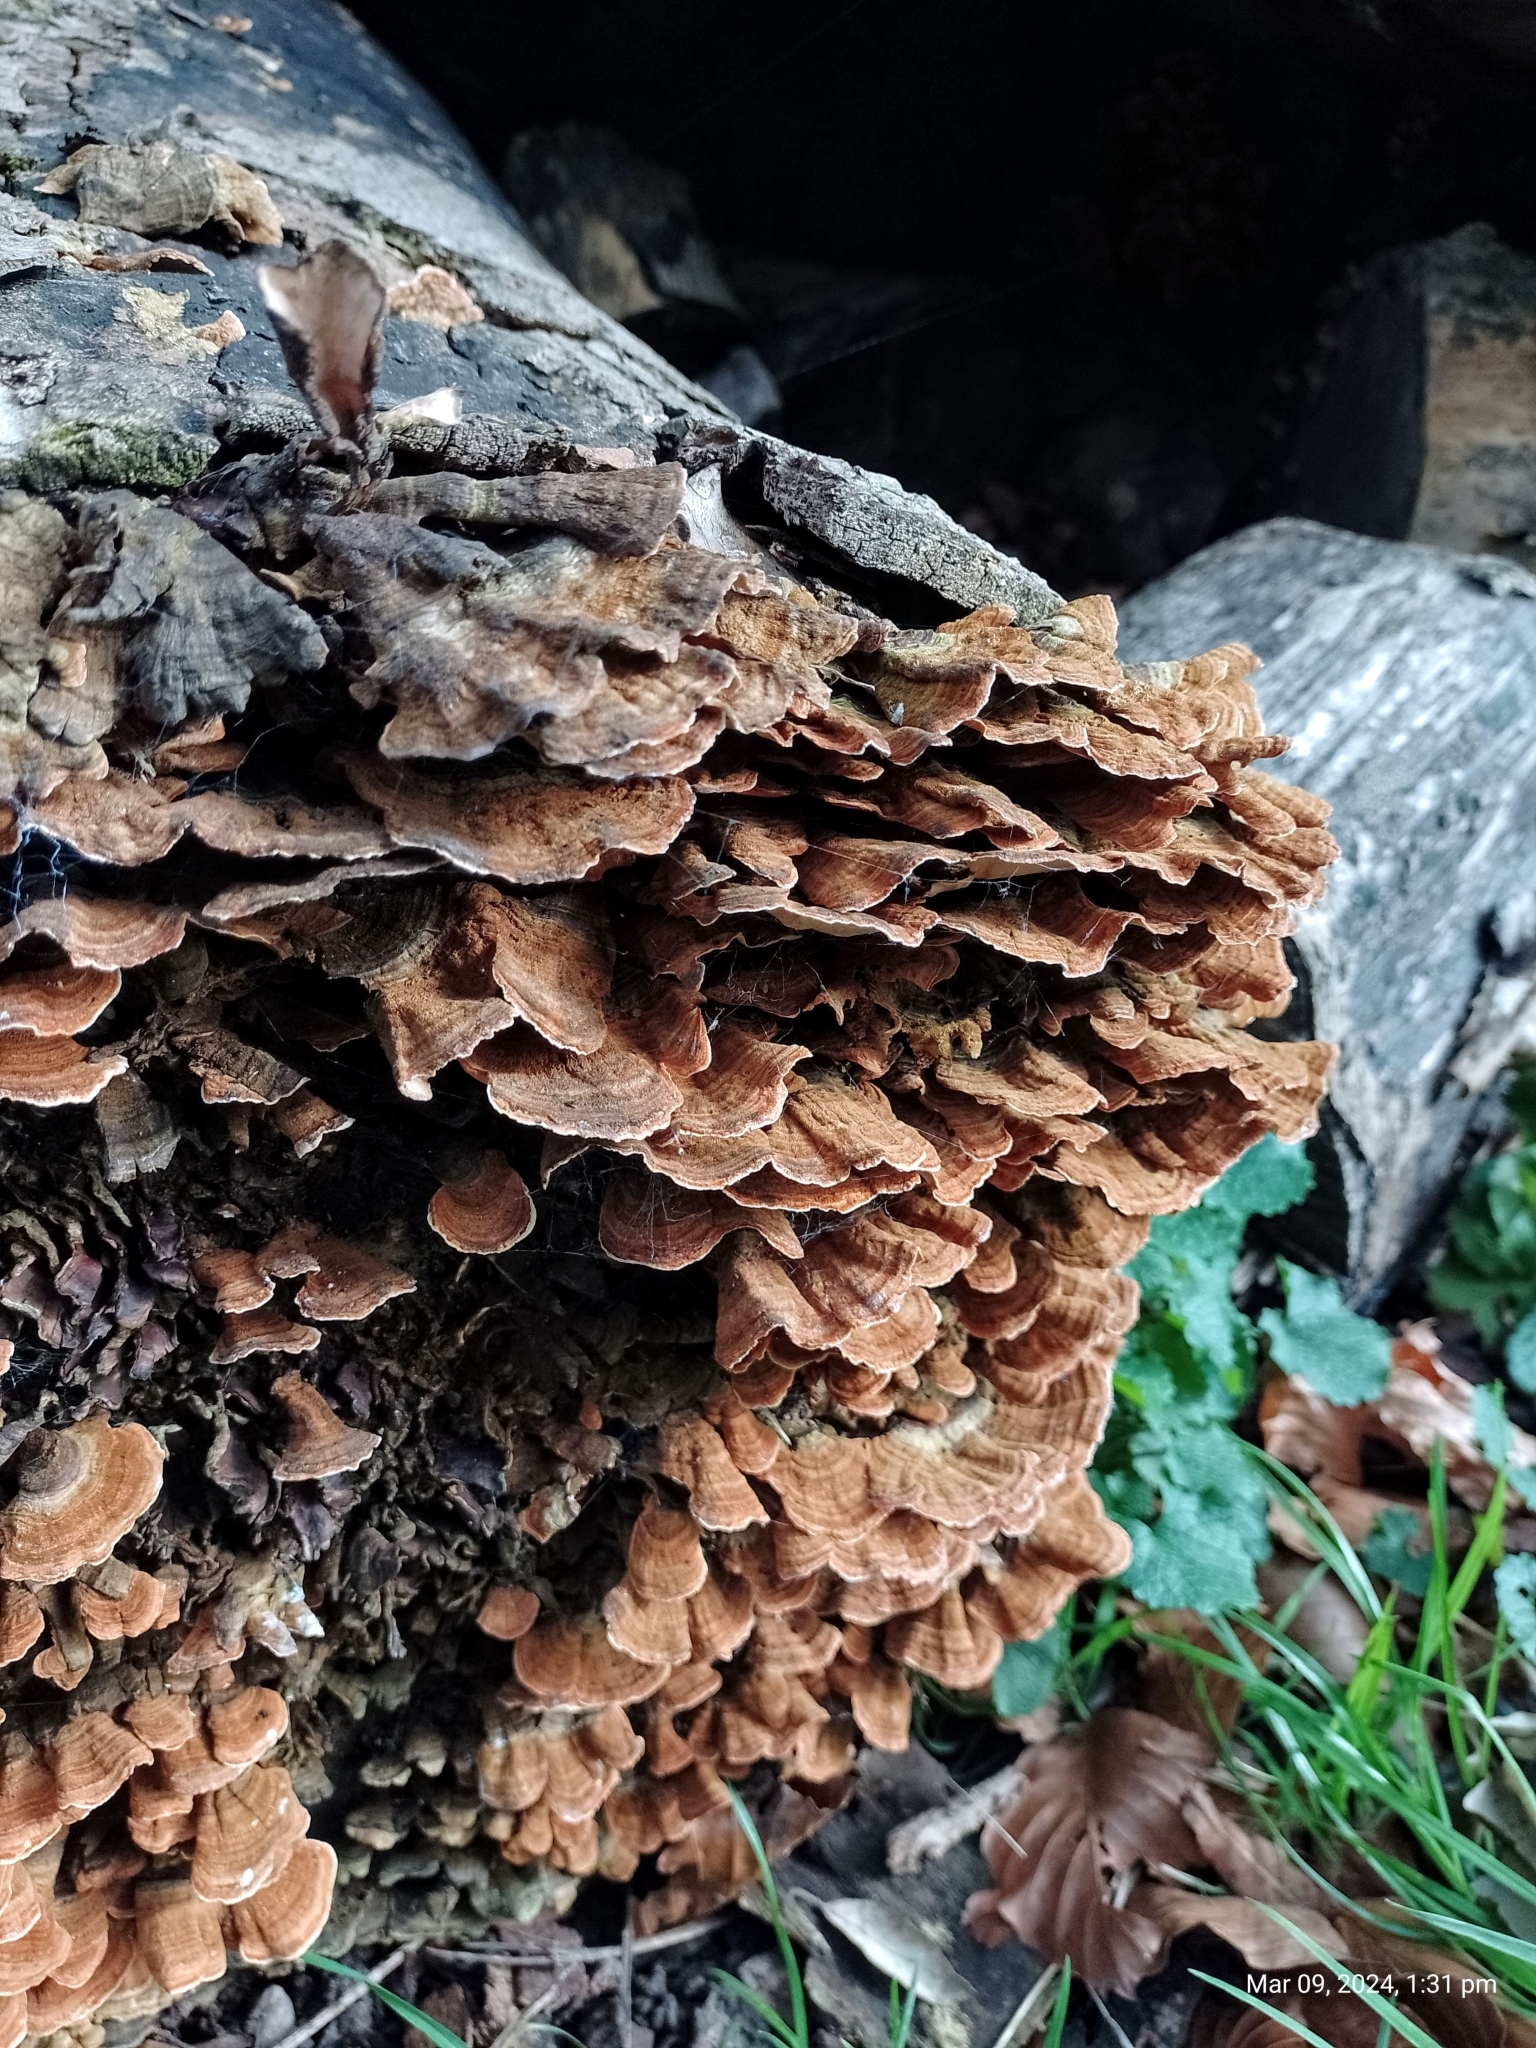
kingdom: Fungi
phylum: Basidiomycota
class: Agaricomycetes
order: Russulales
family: Stereaceae
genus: Stereum
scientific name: Stereum hirsutum
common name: Hairy curtain crust
